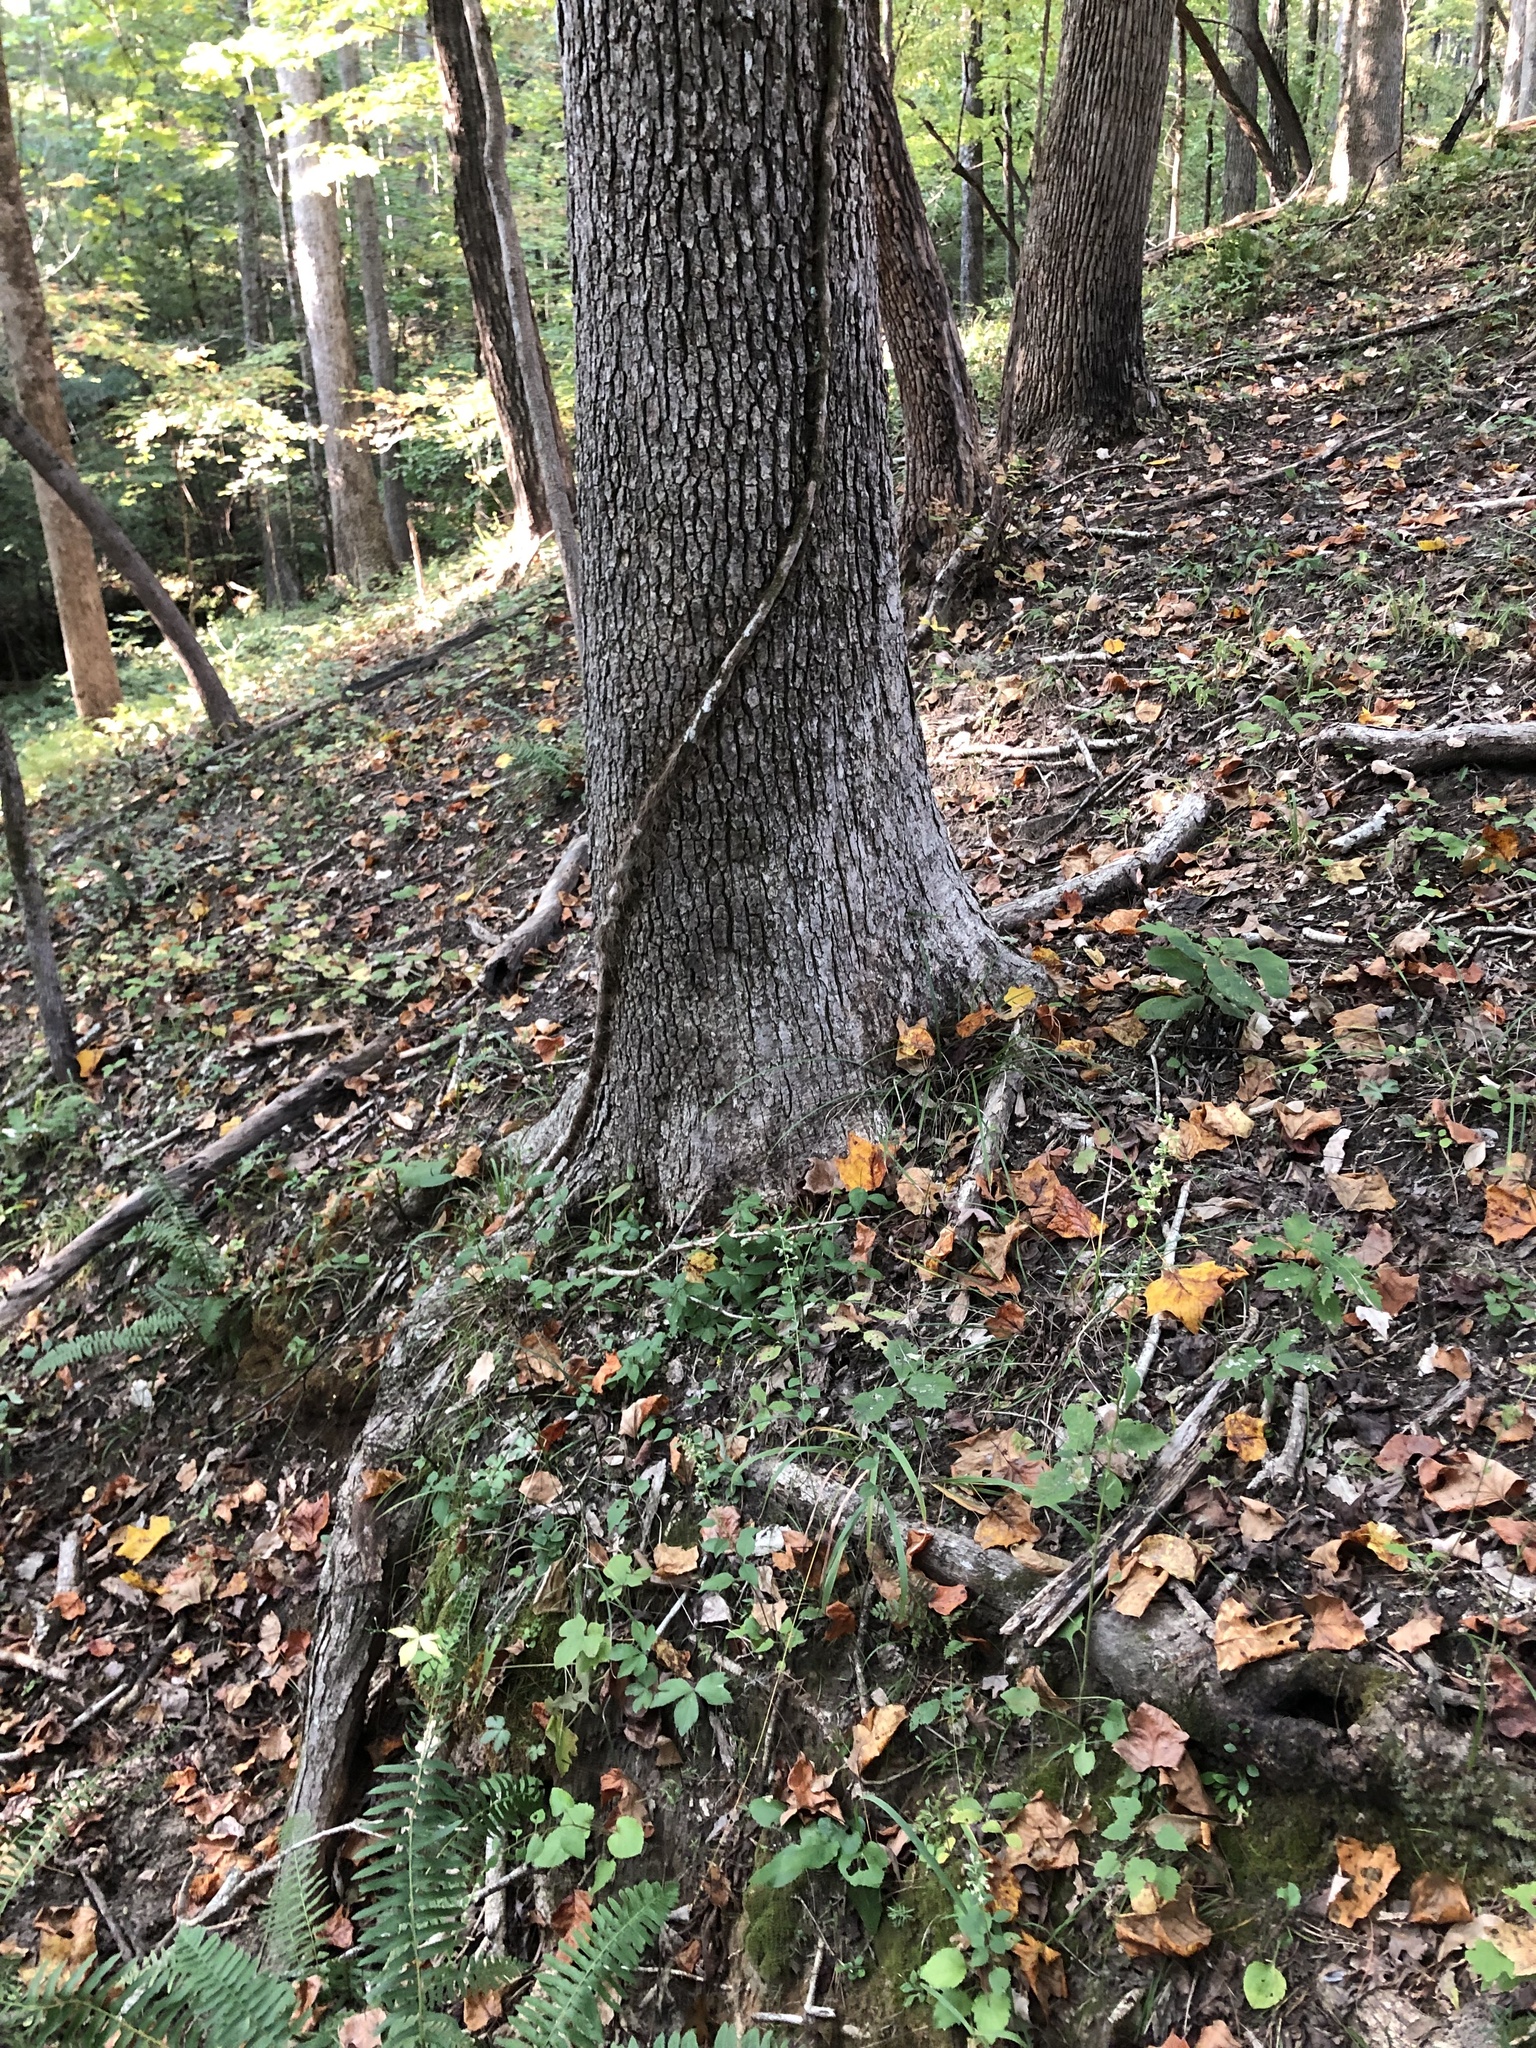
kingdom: Plantae
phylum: Tracheophyta
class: Magnoliopsida
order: Asterales
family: Asteraceae
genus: Solidago
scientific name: Solidago discoidea
